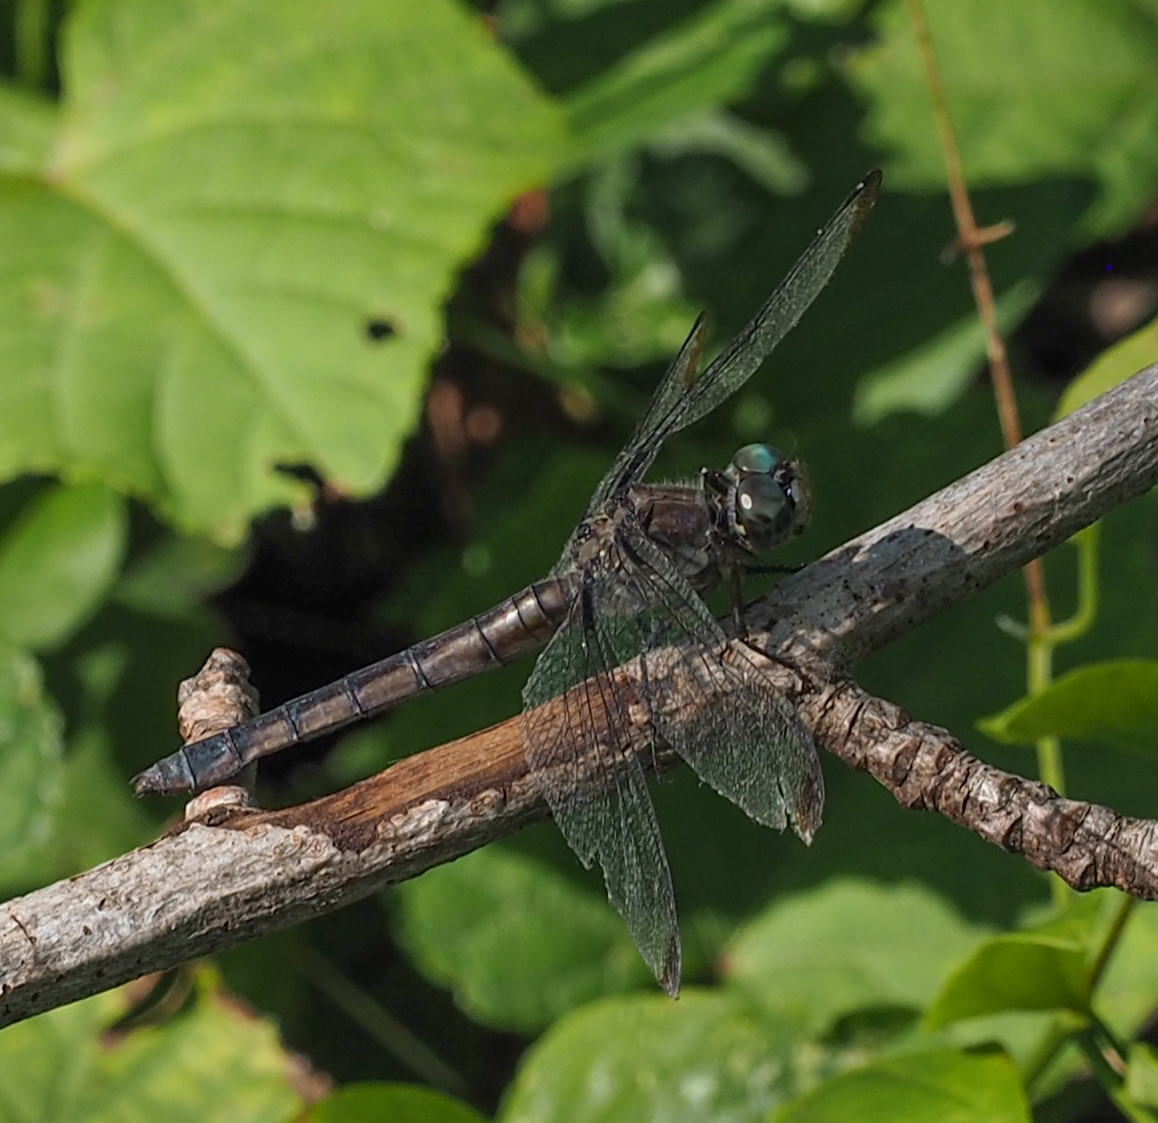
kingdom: Animalia
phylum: Arthropoda
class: Insecta
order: Odonata
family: Libellulidae
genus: Libellula
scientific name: Libellula vibrans
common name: Great blue skimmer
